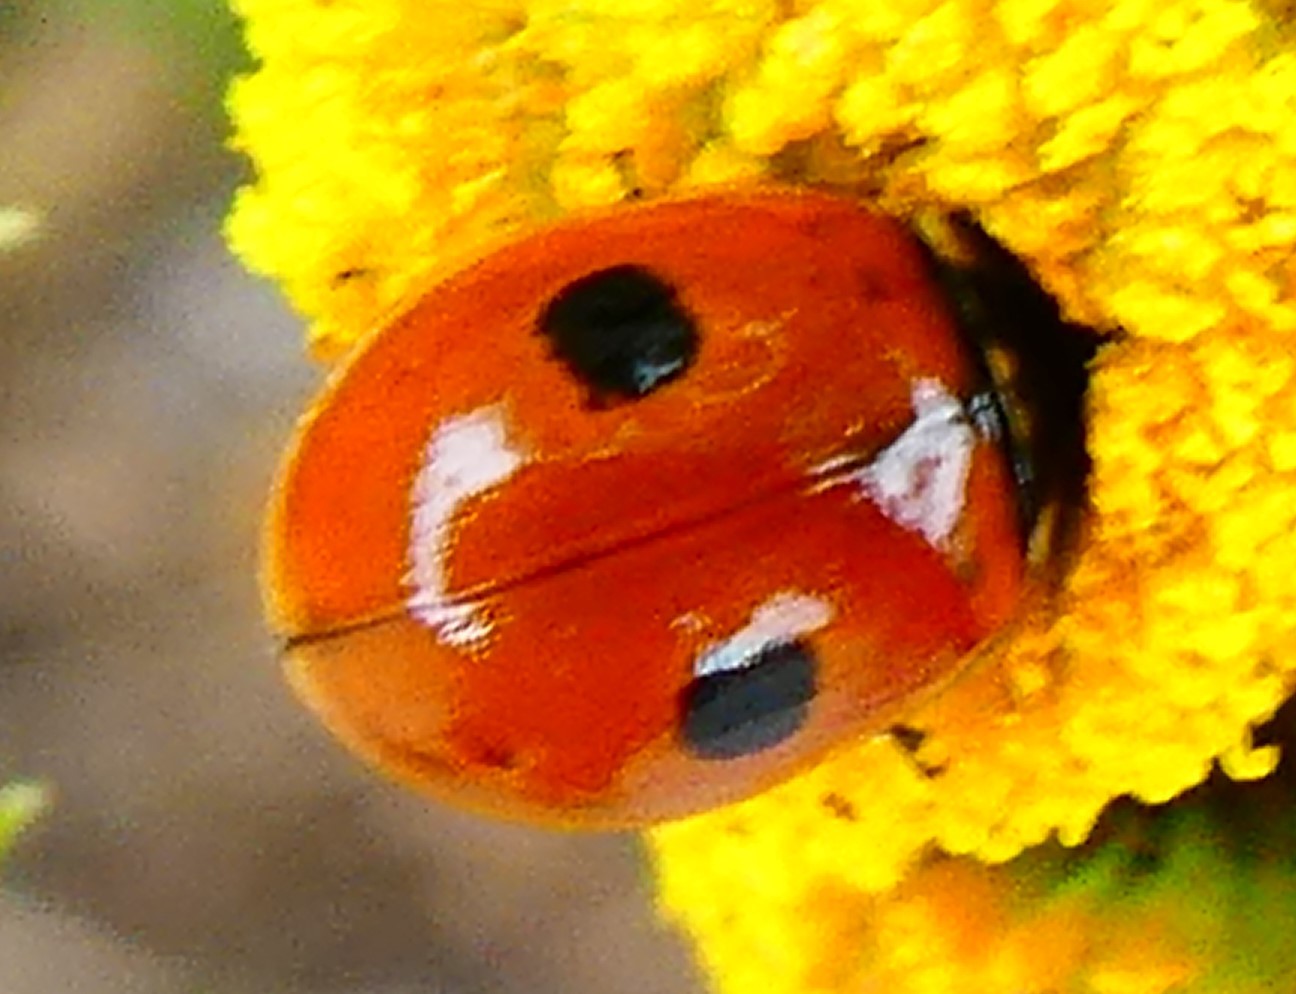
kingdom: Animalia
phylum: Arthropoda
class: Insecta
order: Coleoptera
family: Coccinellidae
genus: Adalia
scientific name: Adalia bipunctata
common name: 2-spot ladybird
